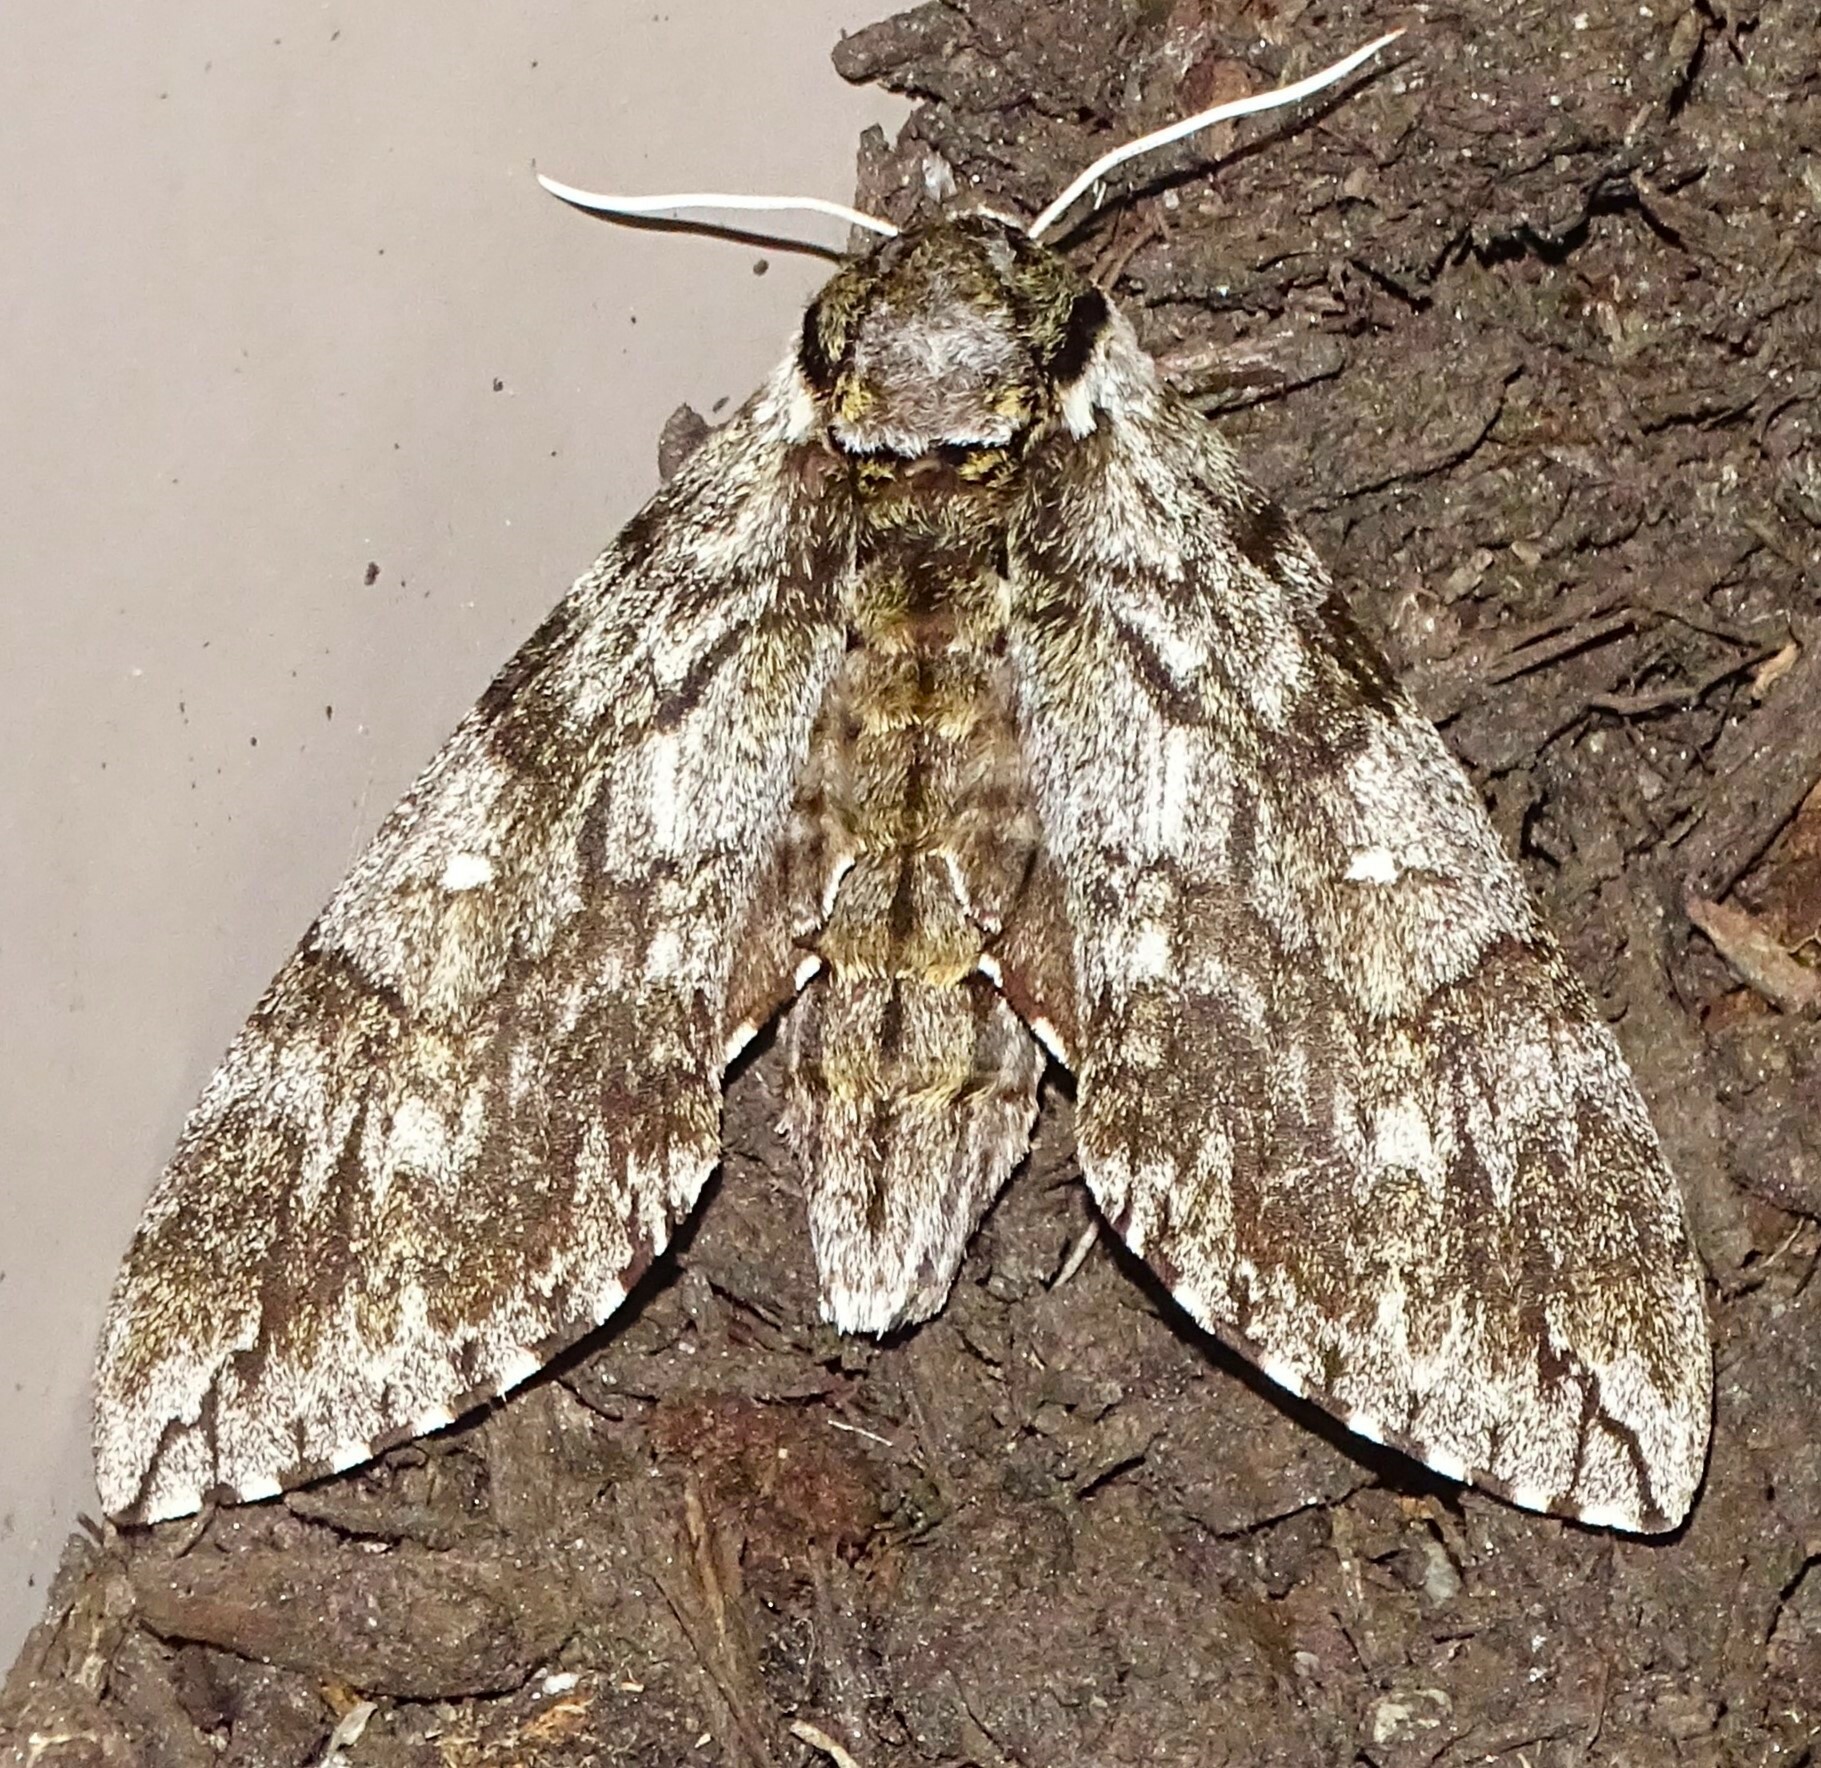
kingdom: Animalia
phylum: Arthropoda
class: Insecta
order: Lepidoptera
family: Sphingidae
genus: Ceratomia
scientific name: Ceratomia undulosa
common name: Waved sphinx
